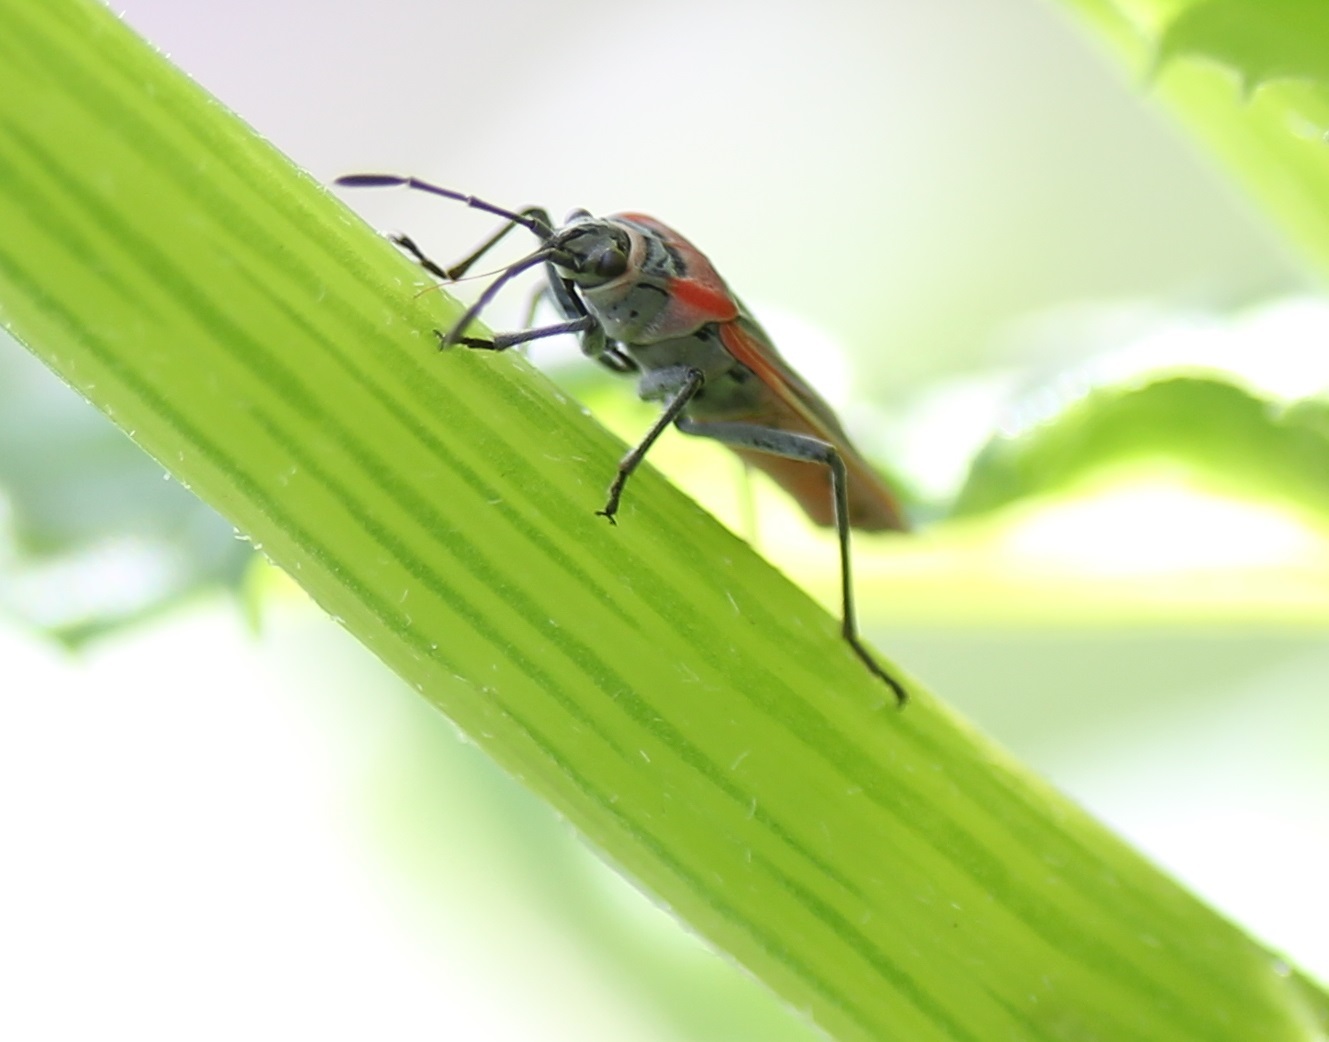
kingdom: Animalia
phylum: Arthropoda
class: Insecta
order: Hemiptera
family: Lygaeidae
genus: Neacoryphus
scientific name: Neacoryphus bicrucis
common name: Lygaeid bug
